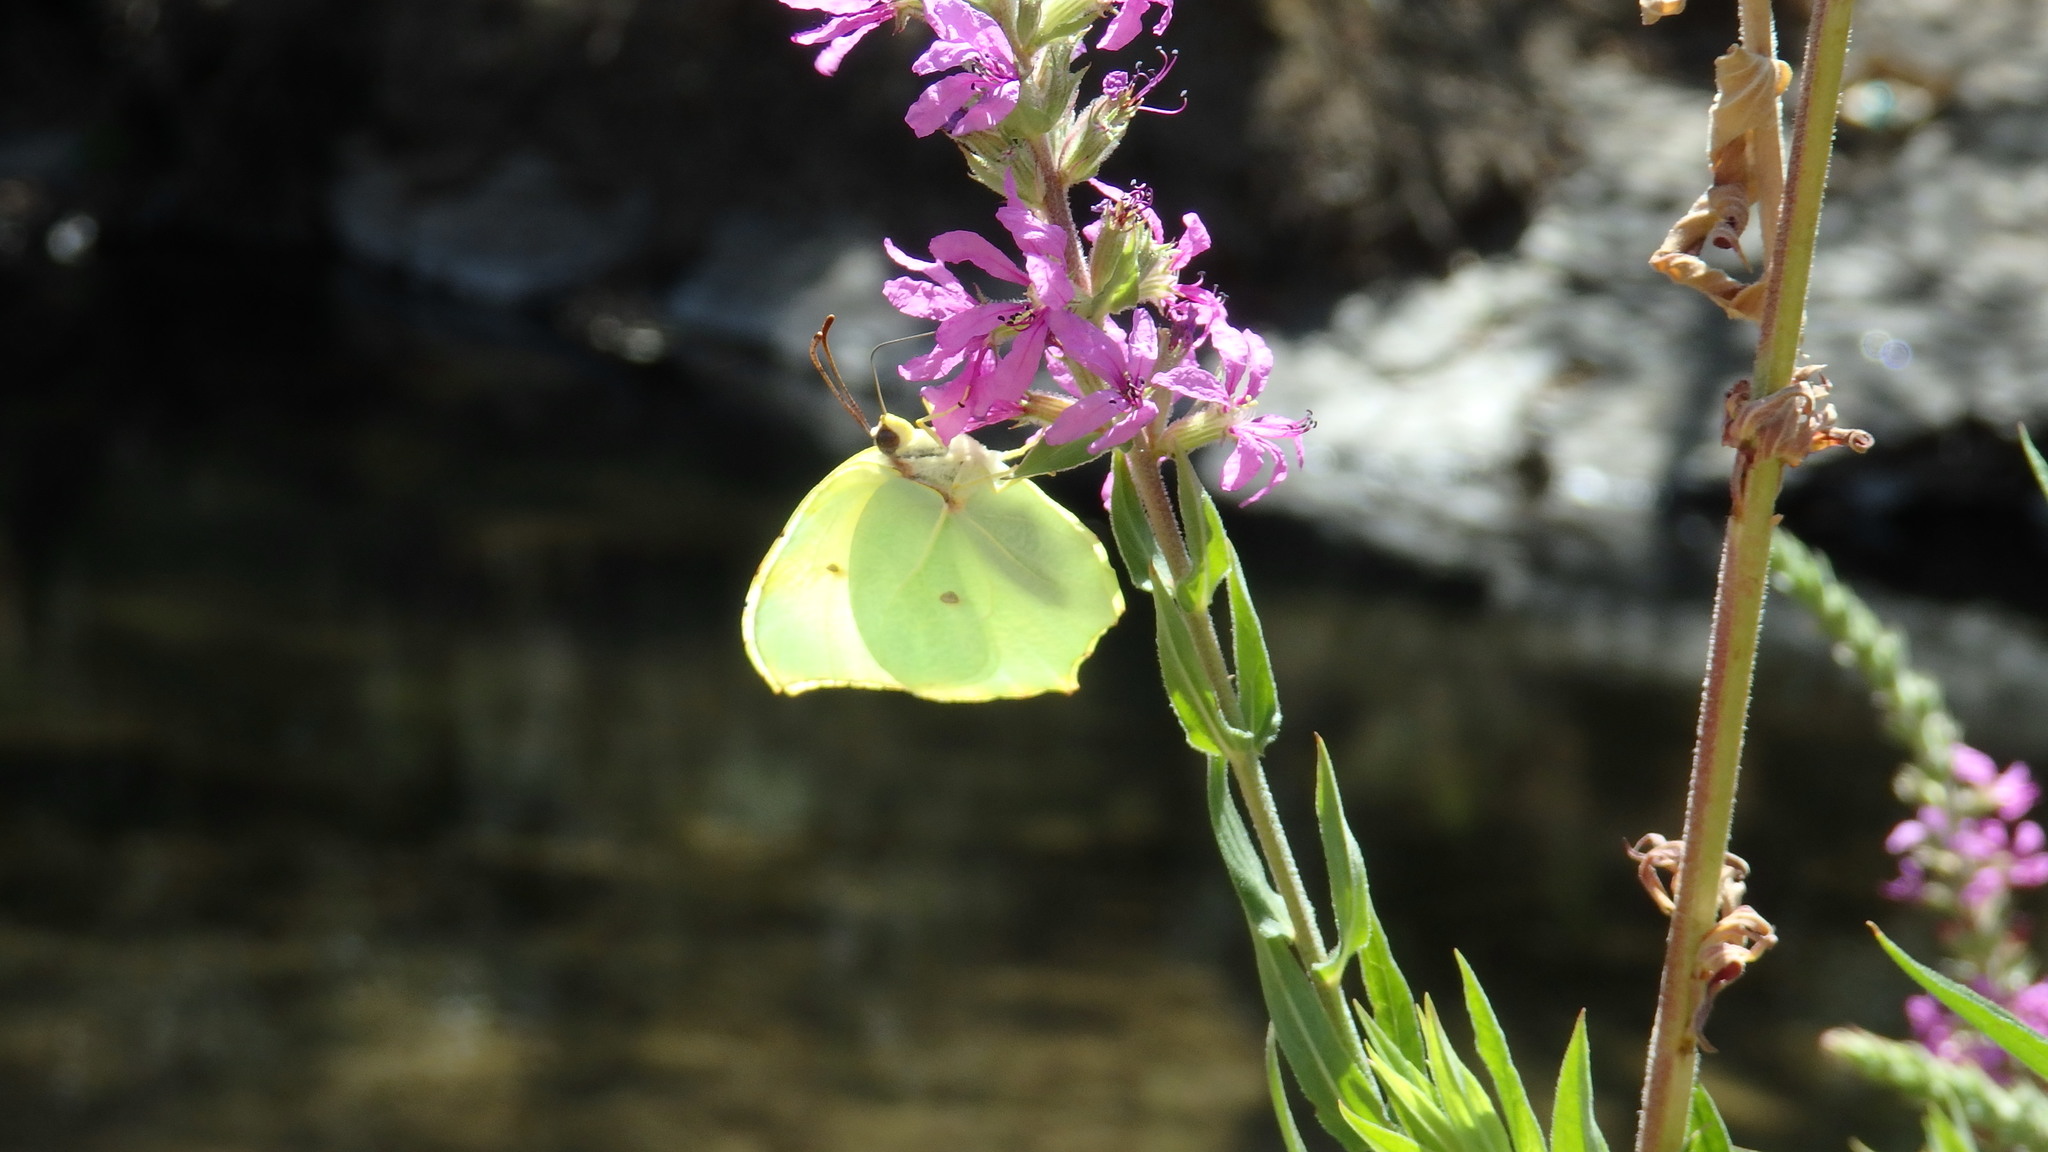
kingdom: Animalia
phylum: Arthropoda
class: Insecta
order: Lepidoptera
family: Pieridae
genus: Gonepteryx
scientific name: Gonepteryx rhamni
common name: Brimstone
